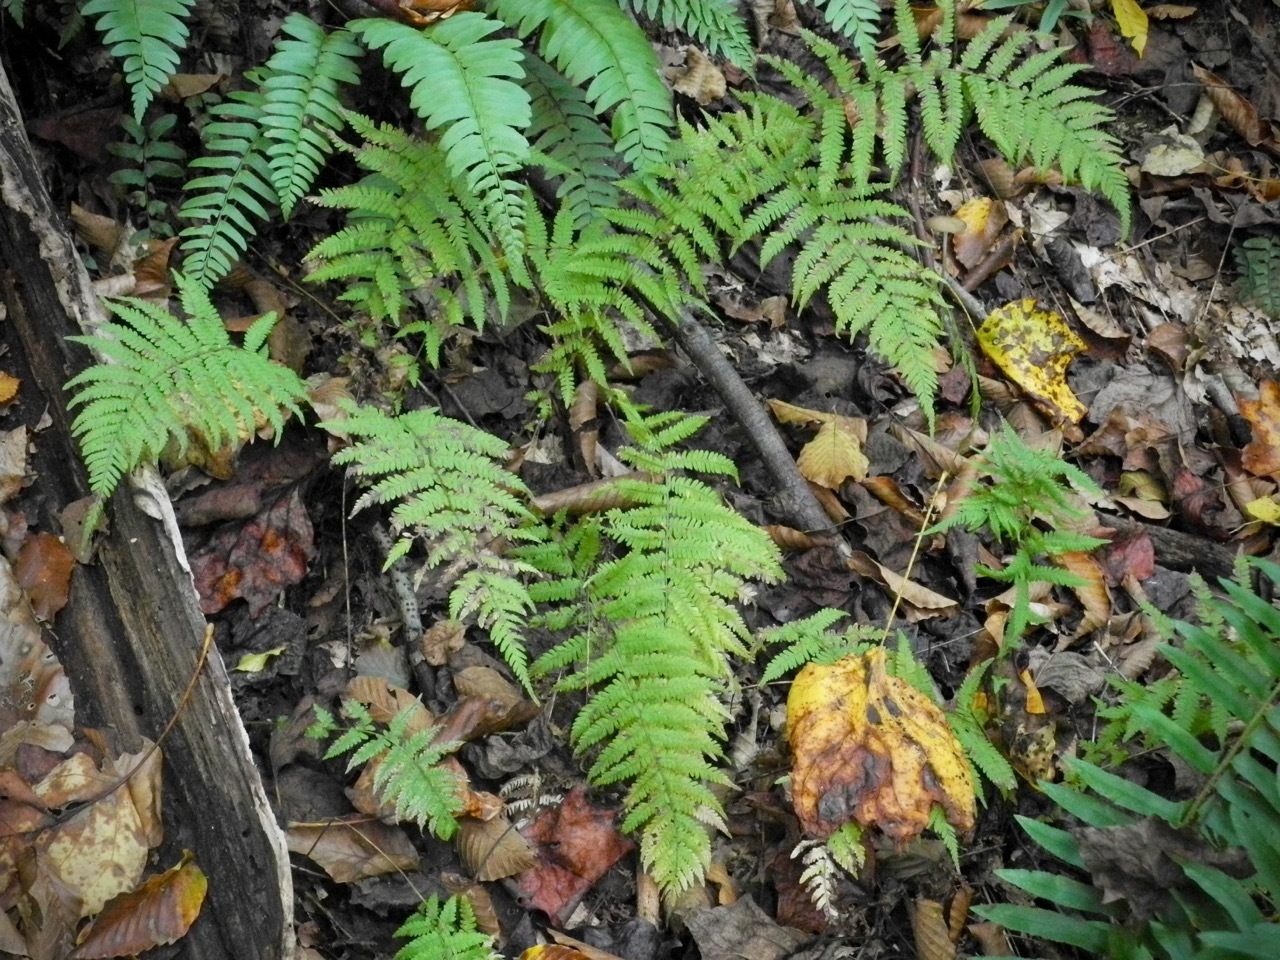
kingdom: Plantae
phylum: Tracheophyta
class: Polypodiopsida
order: Polypodiales
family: Thelypteridaceae
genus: Amauropelta
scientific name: Amauropelta noveboracensis
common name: New york fern
